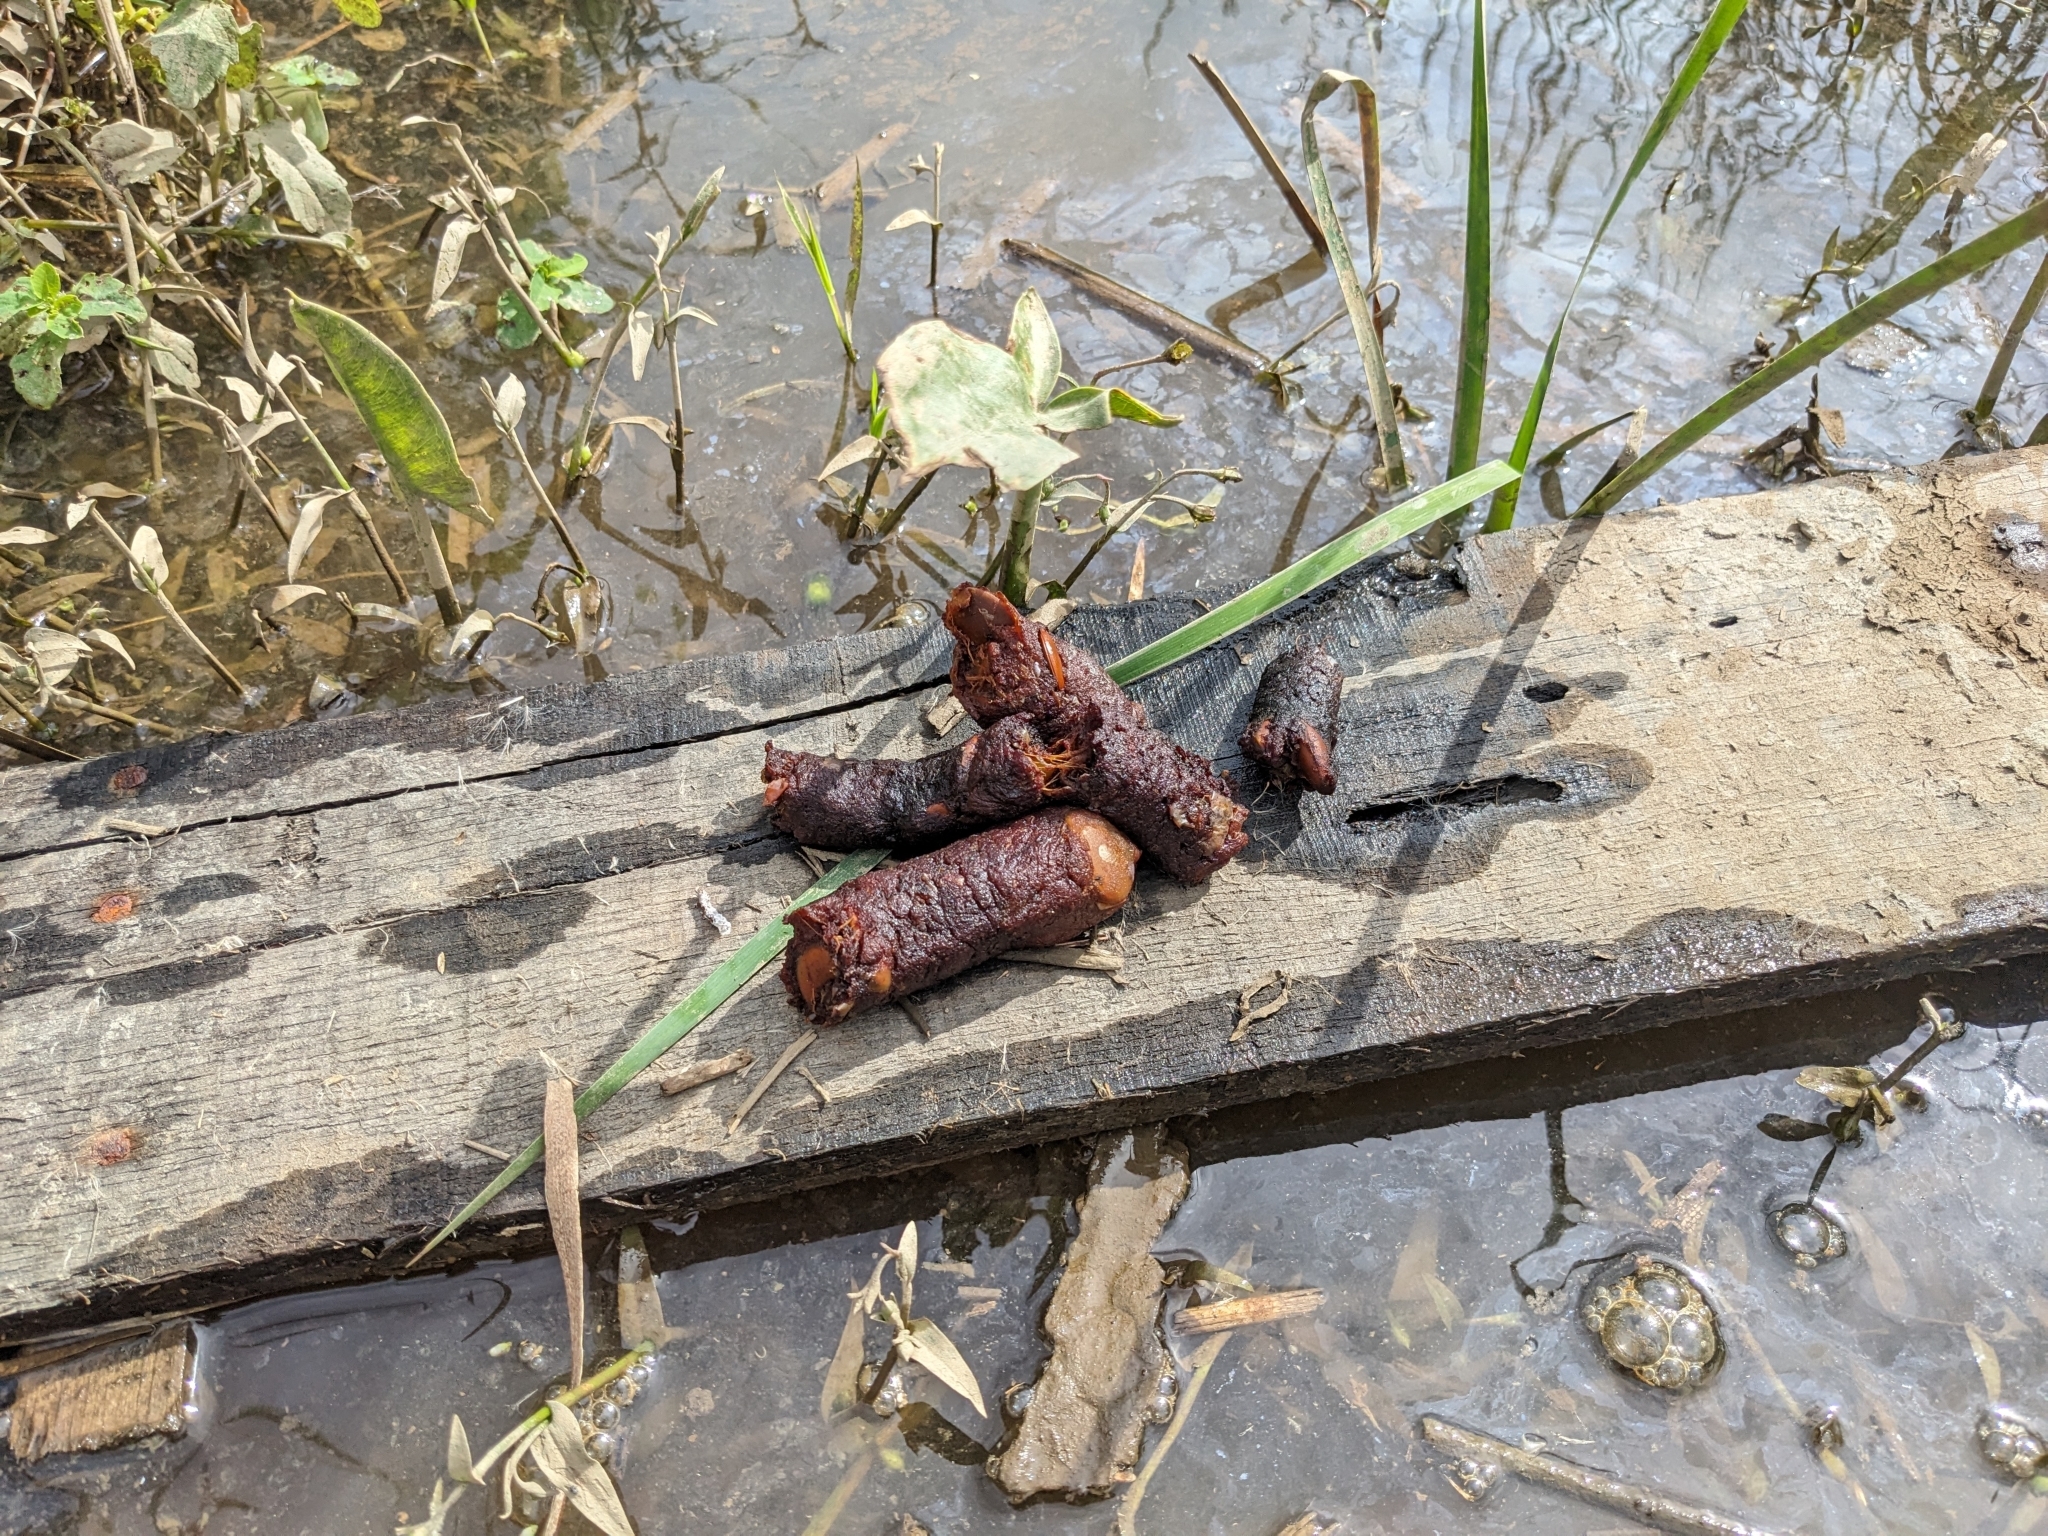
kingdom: Animalia
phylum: Chordata
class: Mammalia
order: Carnivora
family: Procyonidae
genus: Procyon
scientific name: Procyon lotor
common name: Raccoon
